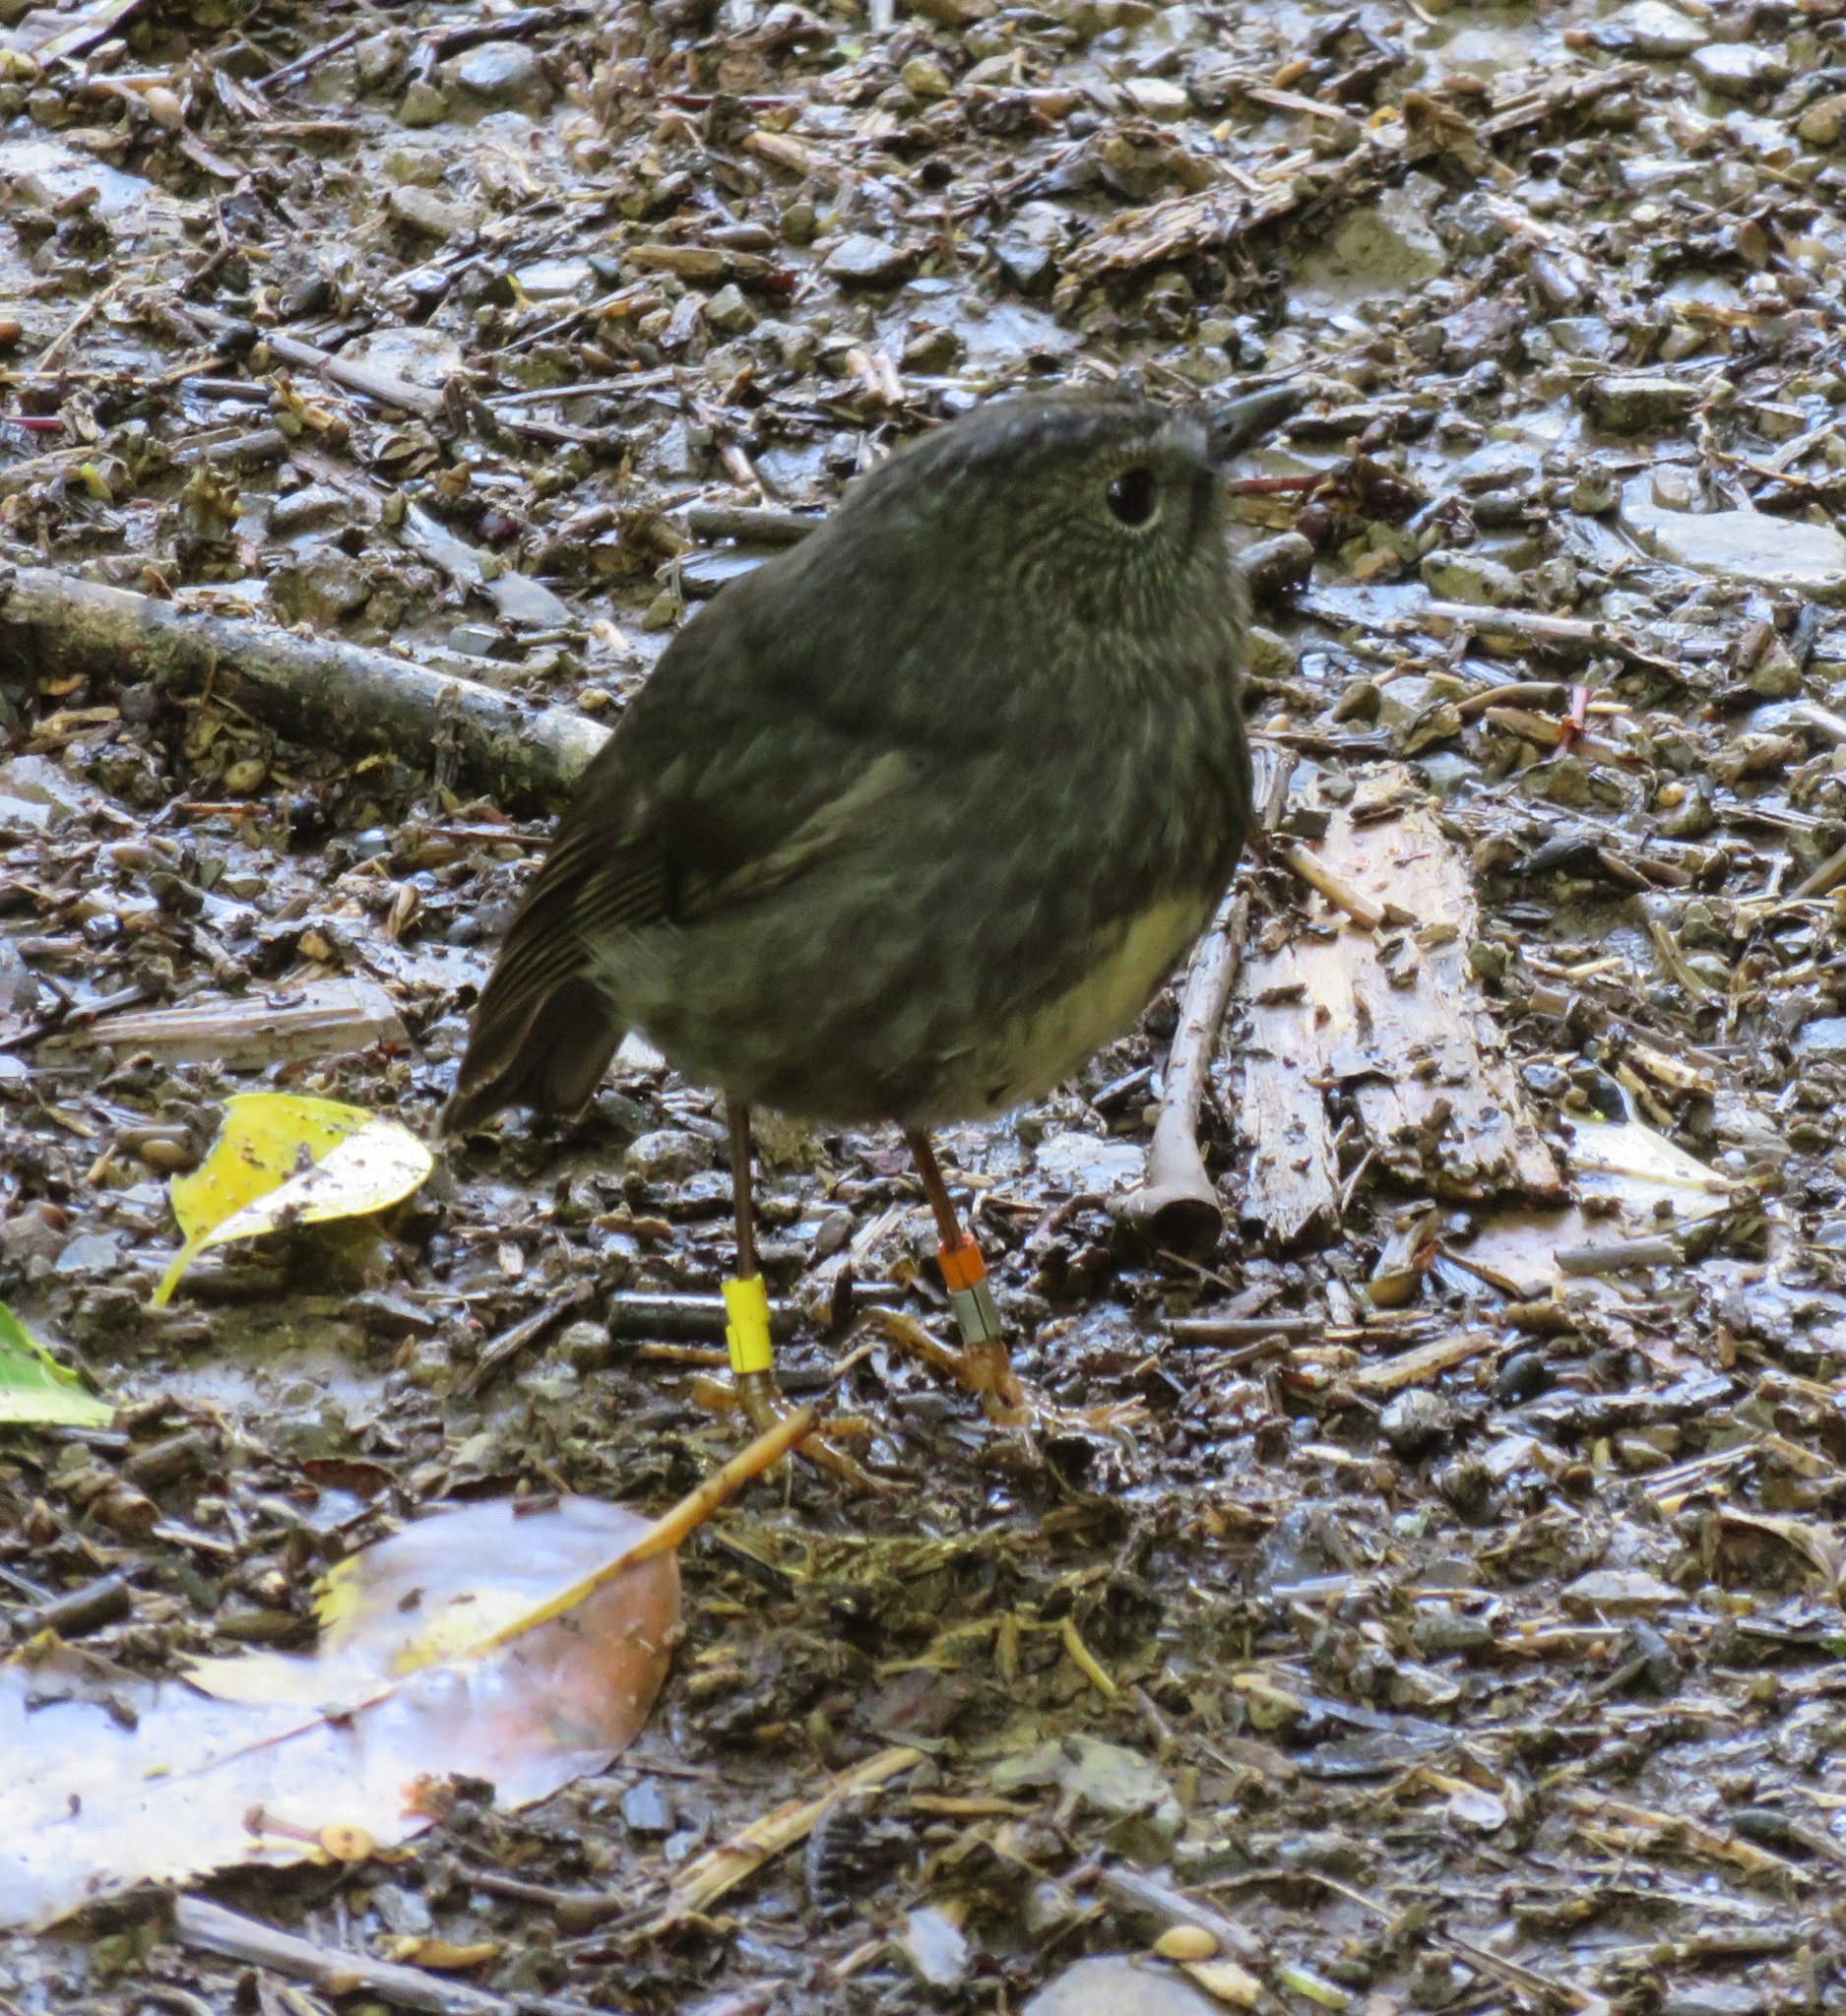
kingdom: Animalia
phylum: Chordata
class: Aves
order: Passeriformes
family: Petroicidae
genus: Petroica
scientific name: Petroica australis
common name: New zealand robin
